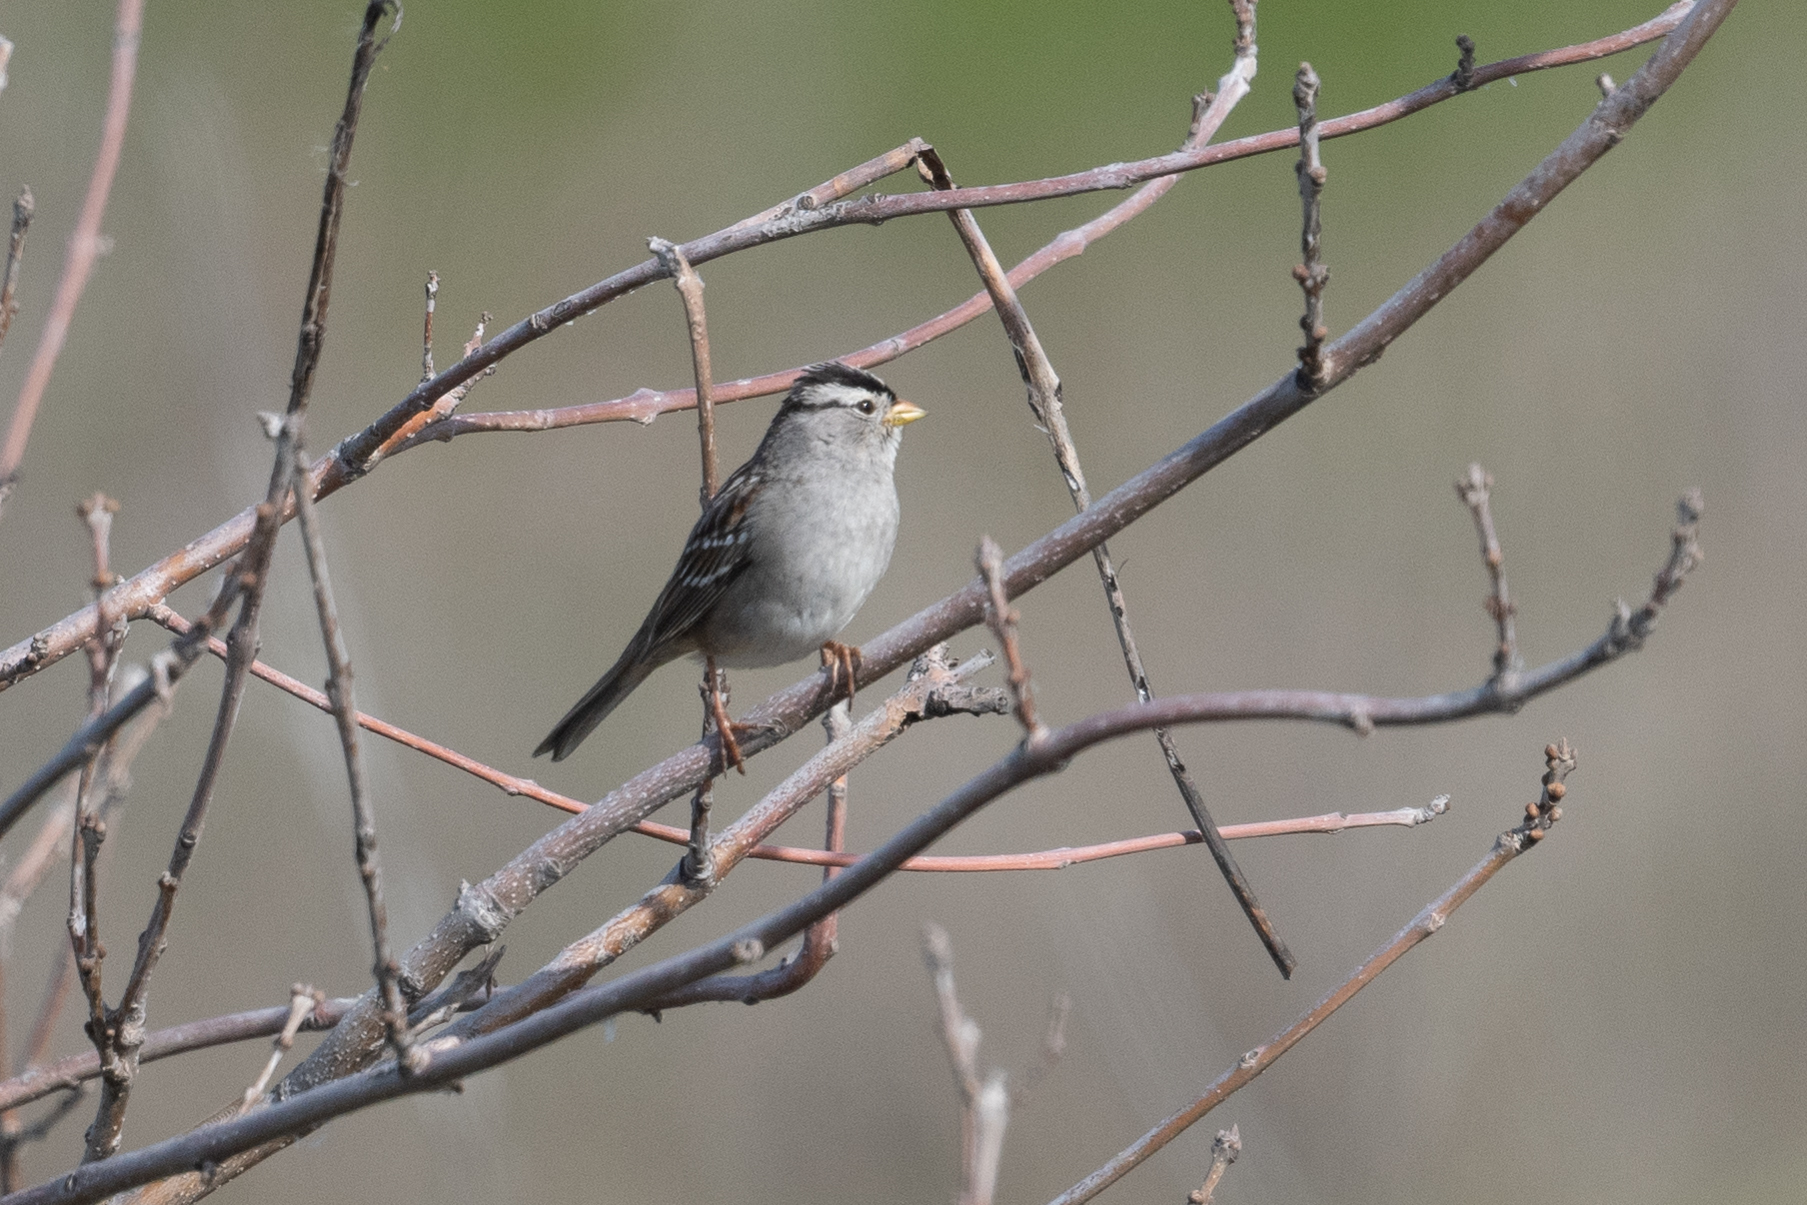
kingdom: Animalia
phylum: Chordata
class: Aves
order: Passeriformes
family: Passerellidae
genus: Zonotrichia
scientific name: Zonotrichia leucophrys
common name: White-crowned sparrow
